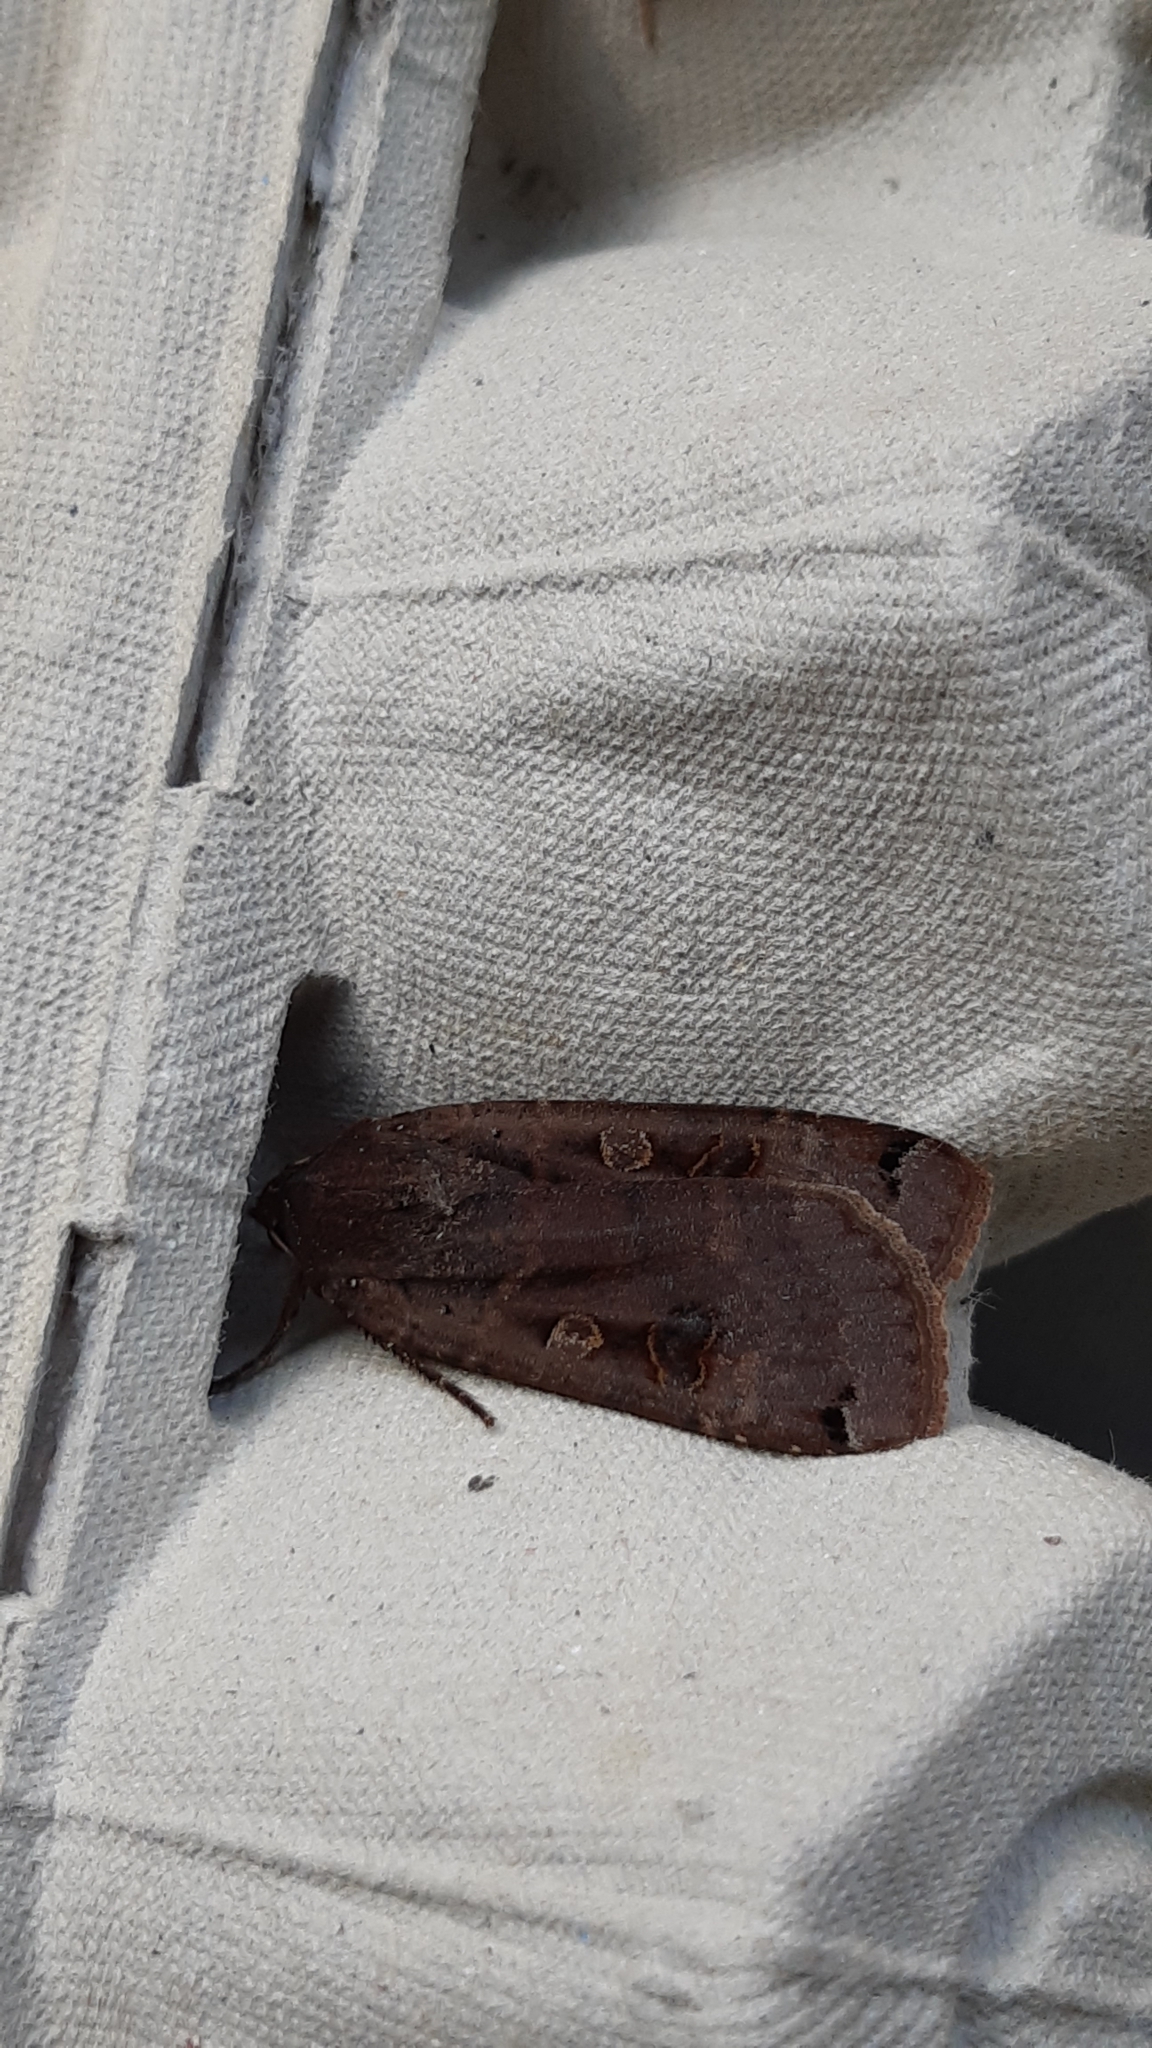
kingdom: Animalia
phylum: Arthropoda
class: Insecta
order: Lepidoptera
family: Noctuidae
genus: Noctua
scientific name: Noctua pronuba
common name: Large yellow underwing
